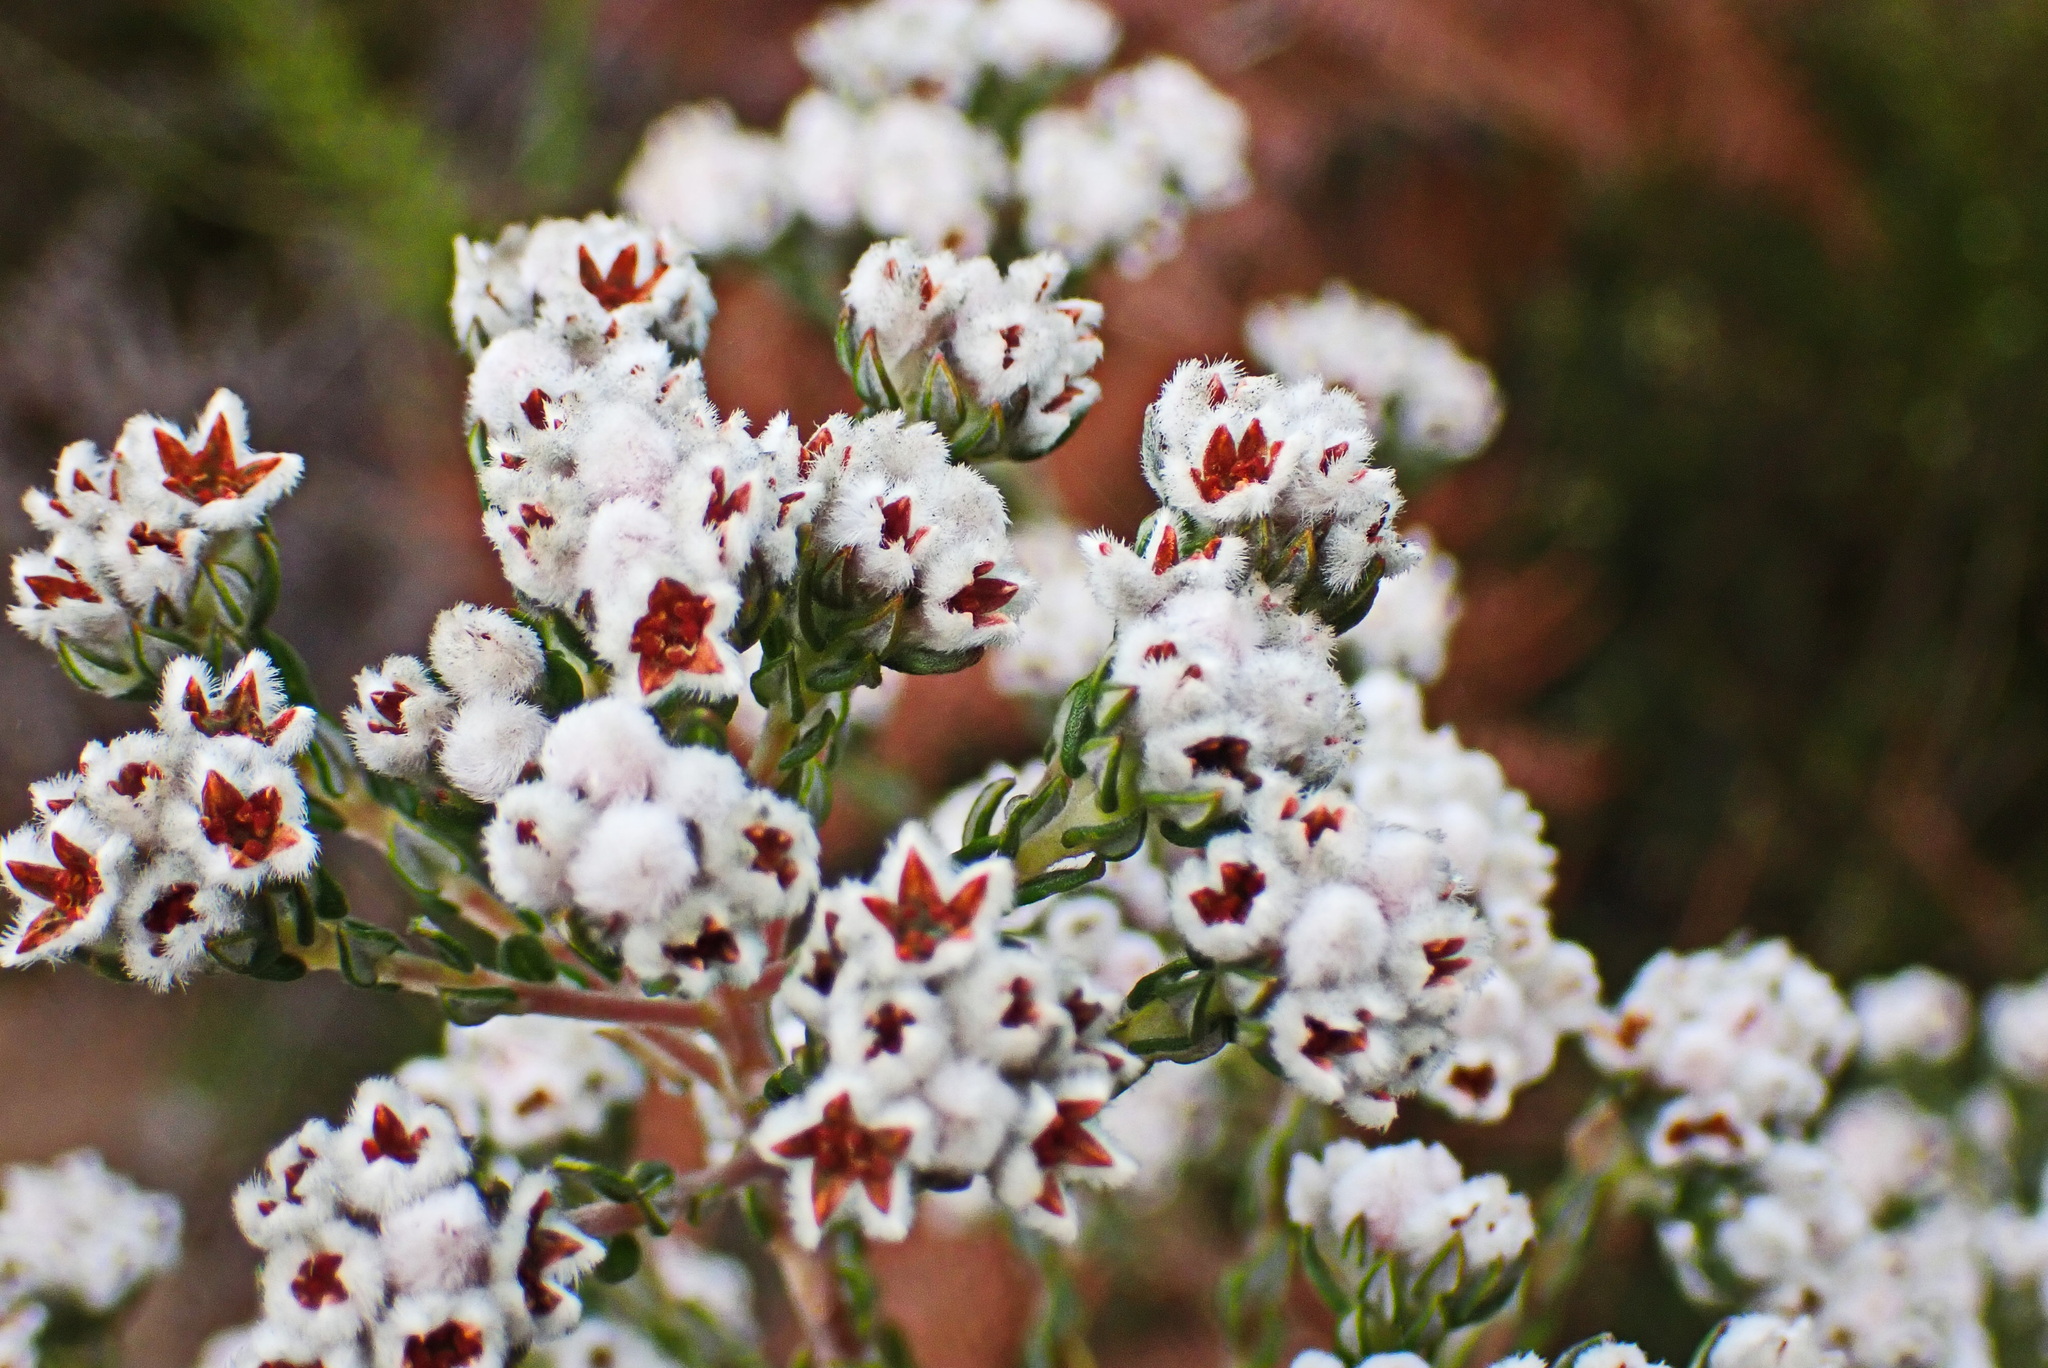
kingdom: Plantae
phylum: Tracheophyta
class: Magnoliopsida
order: Rosales
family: Rhamnaceae
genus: Phylica
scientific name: Phylica purpurea
